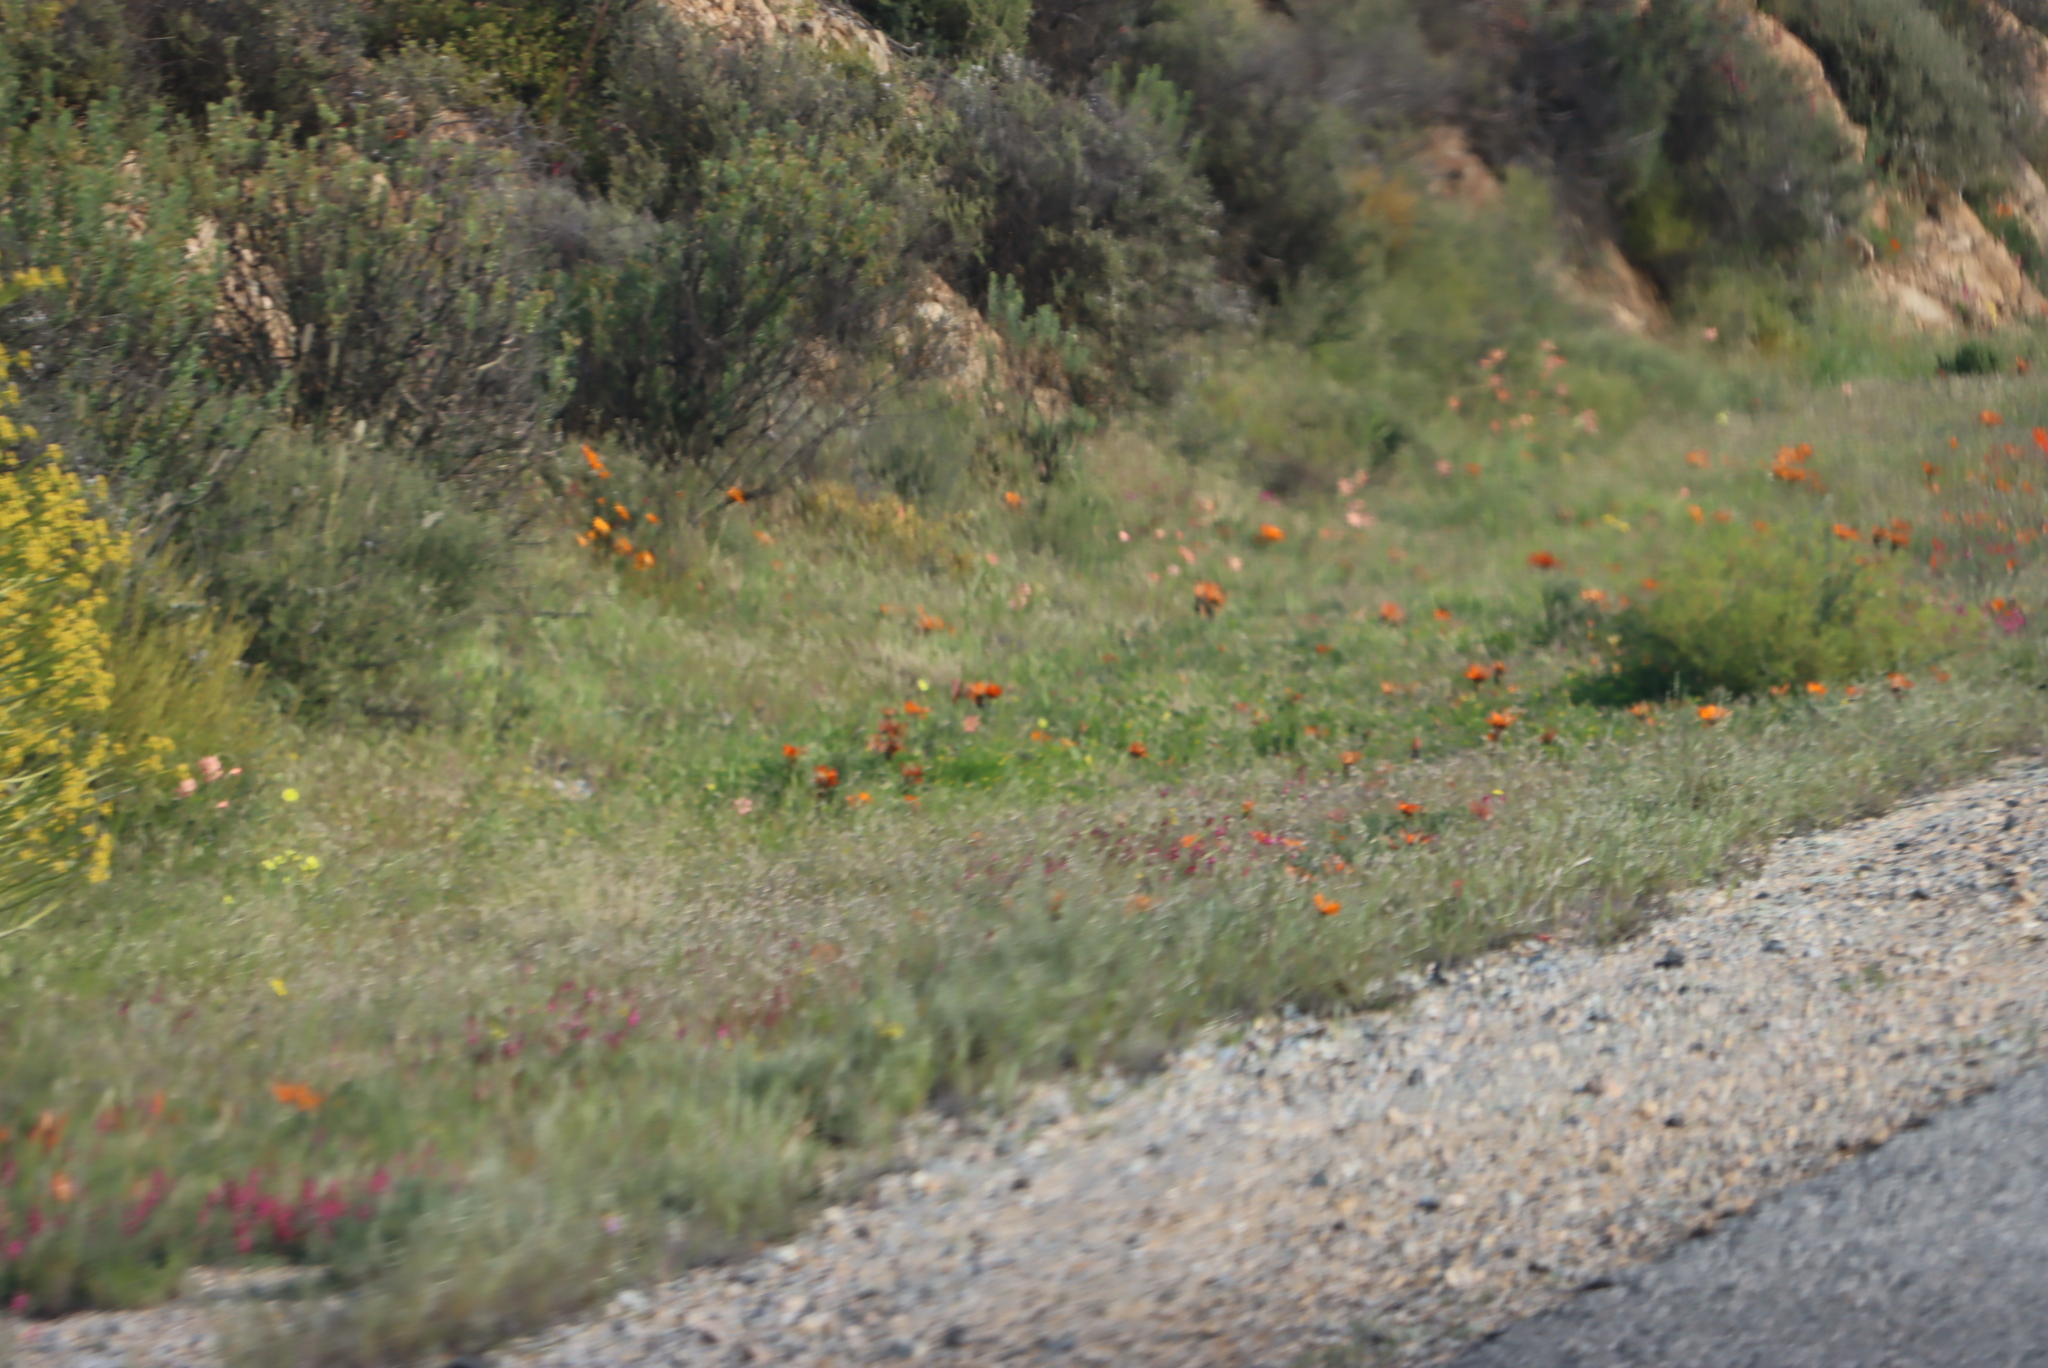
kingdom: Plantae
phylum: Tracheophyta
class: Magnoliopsida
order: Geraniales
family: Geraniaceae
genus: Pelargonium
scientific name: Pelargonium incrassatum
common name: Namaqualand beauty
